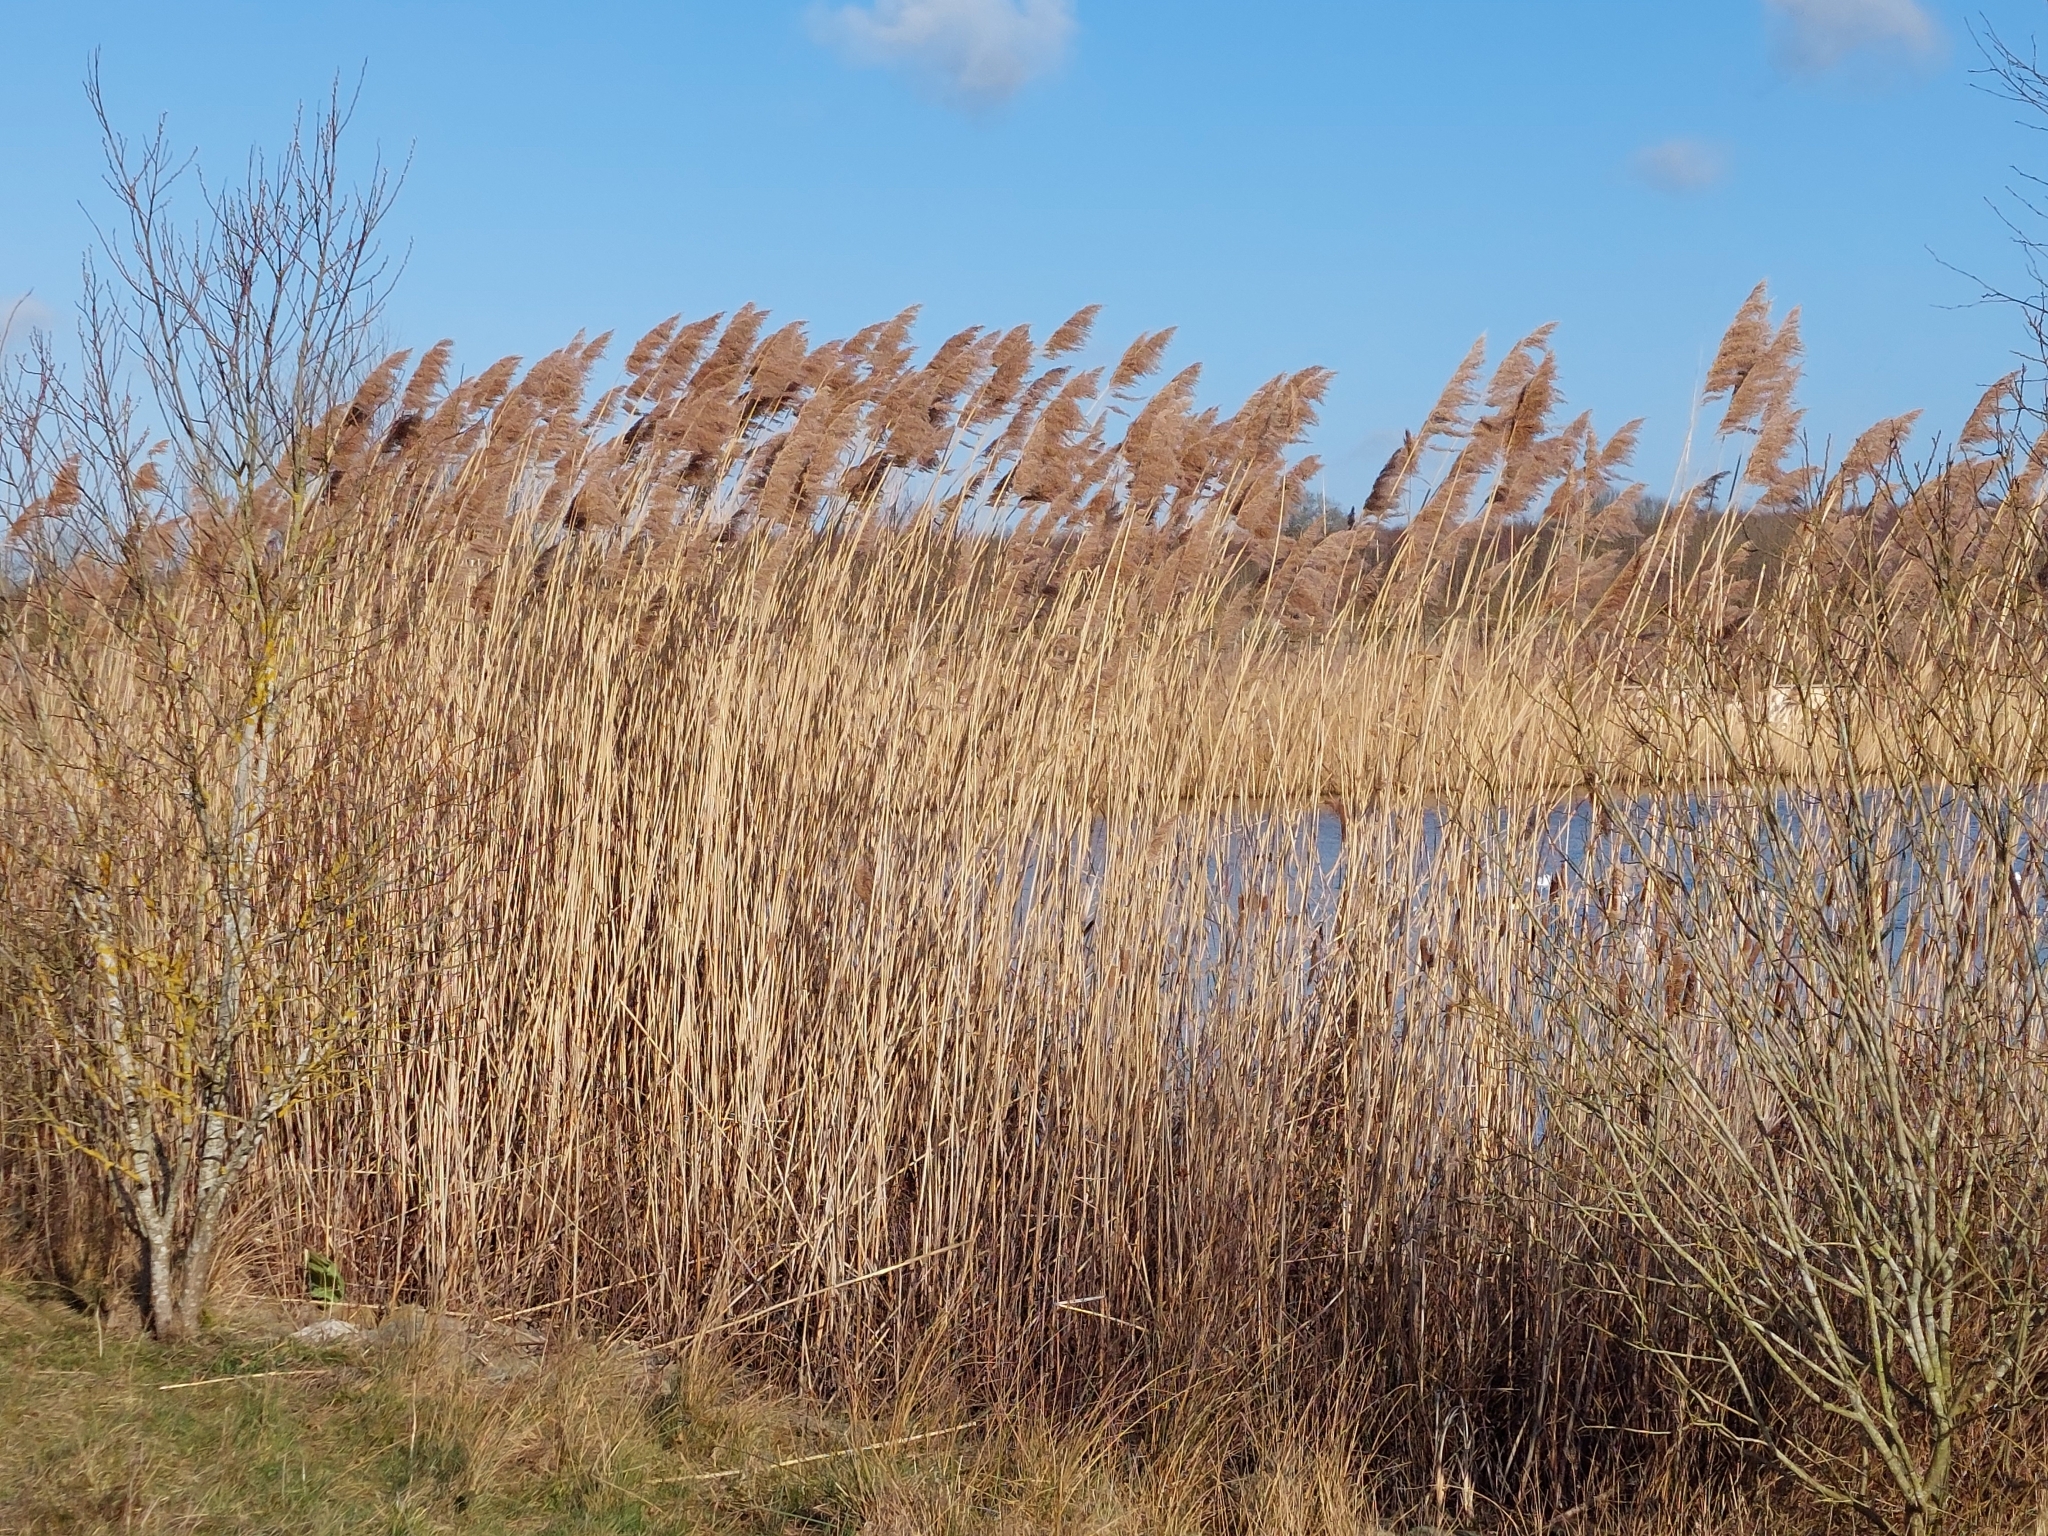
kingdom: Plantae
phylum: Tracheophyta
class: Liliopsida
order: Poales
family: Poaceae
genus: Phragmites
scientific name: Phragmites australis
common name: Common reed
